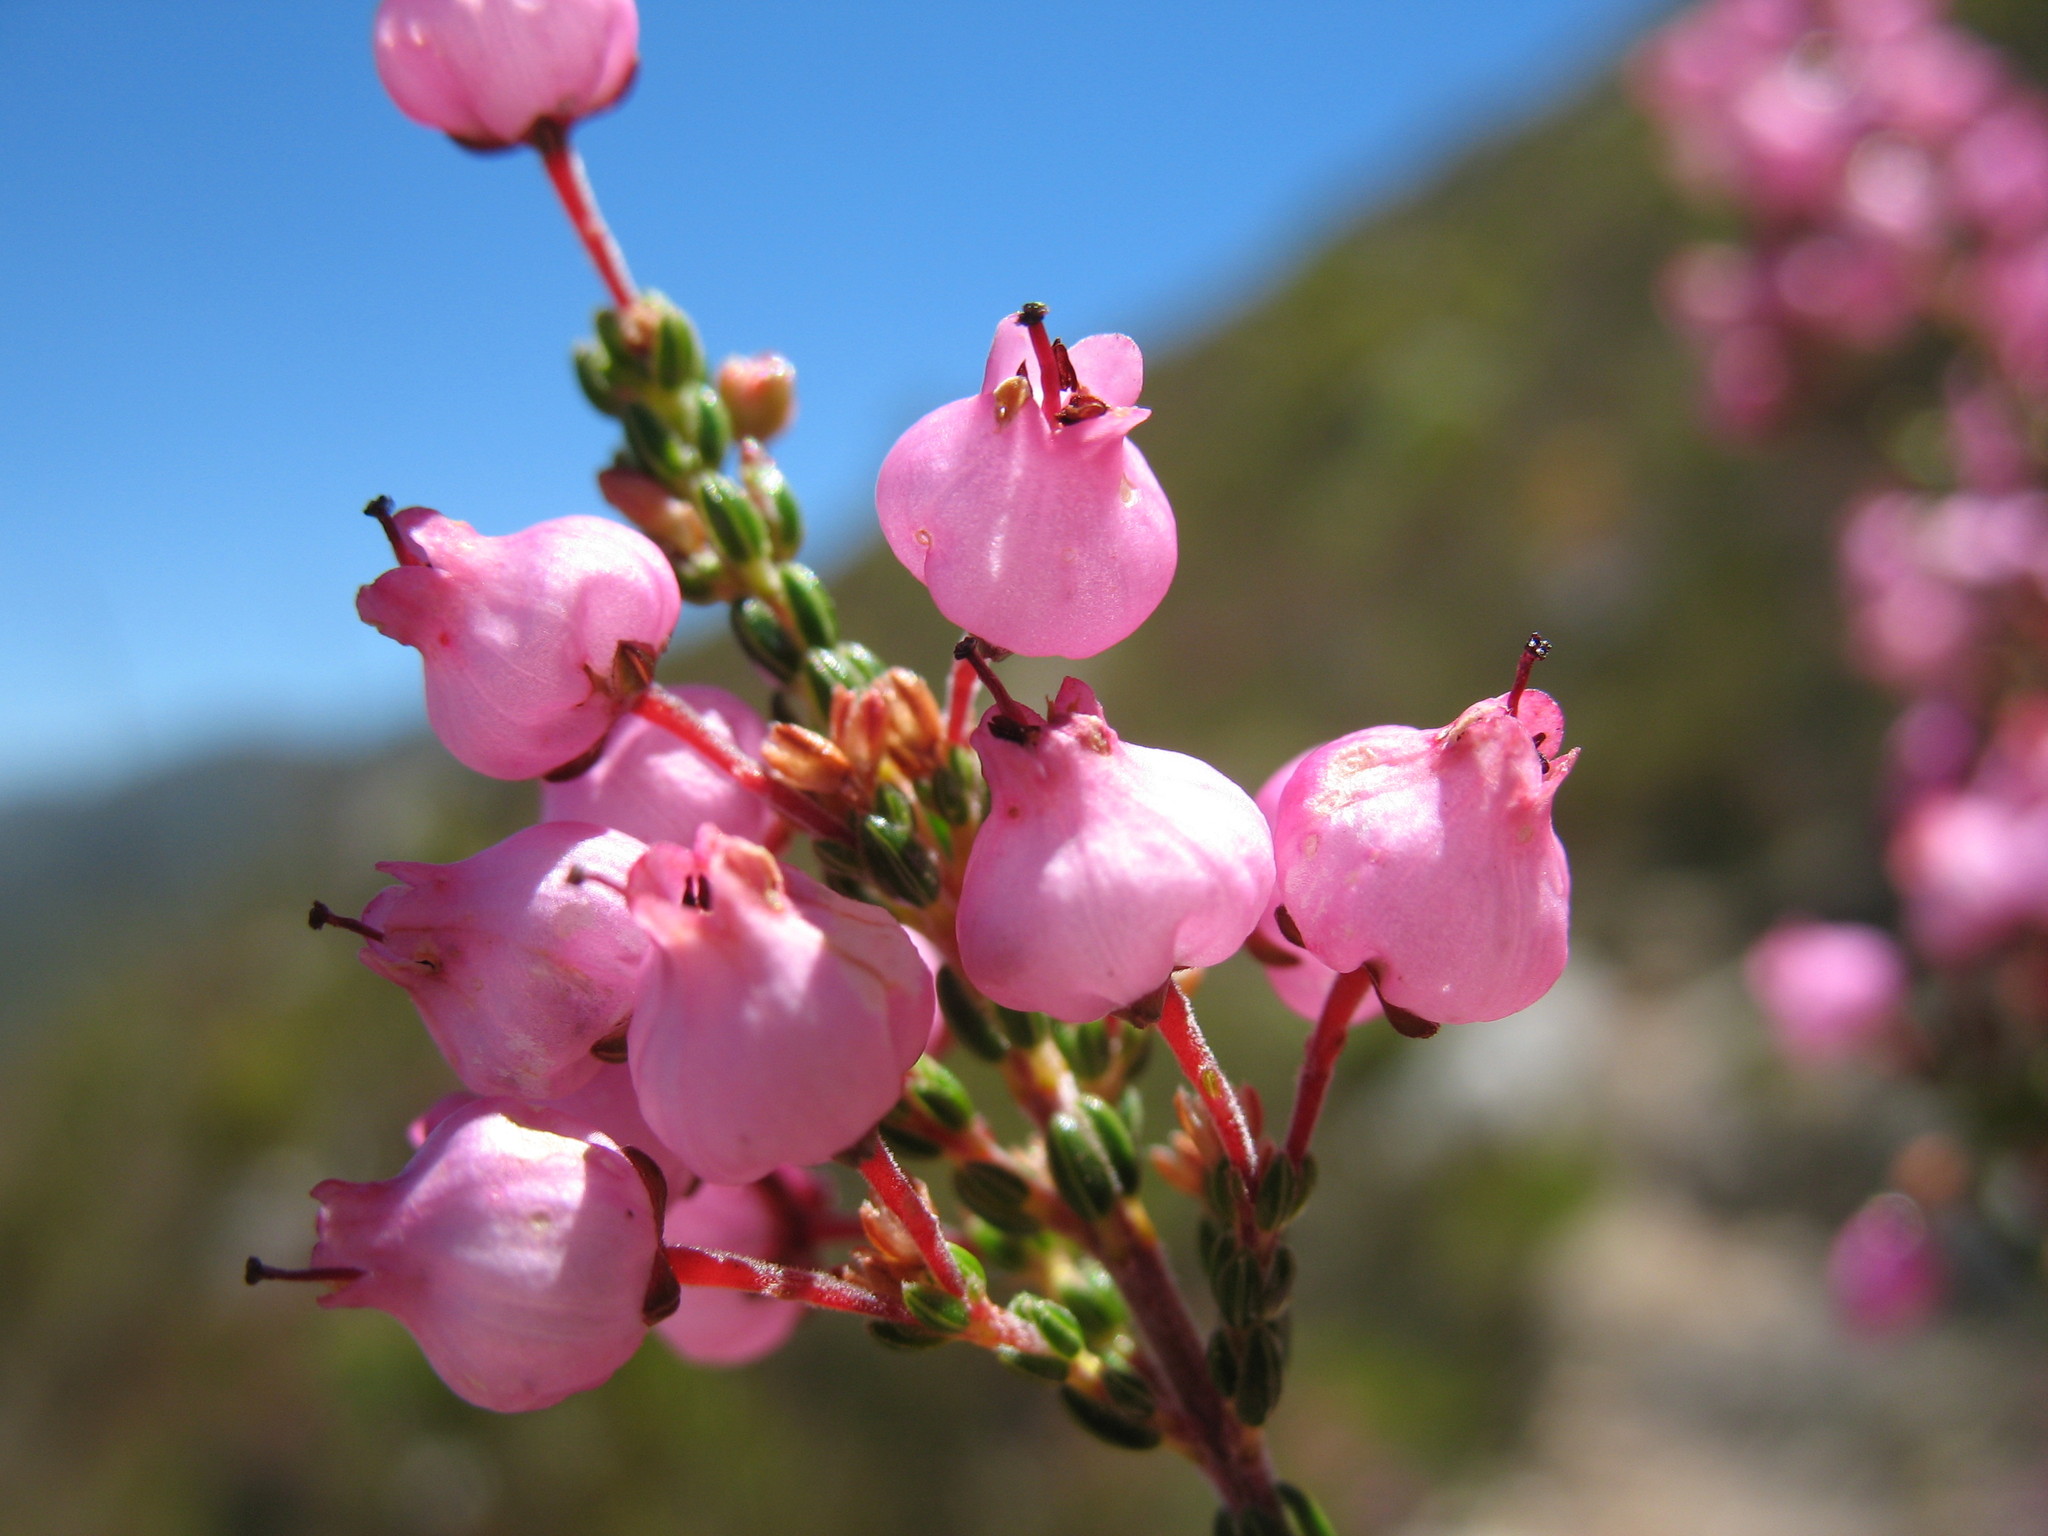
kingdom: Plantae
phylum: Tracheophyta
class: Magnoliopsida
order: Ericales
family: Ericaceae
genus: Erica
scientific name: Erica lateralis
